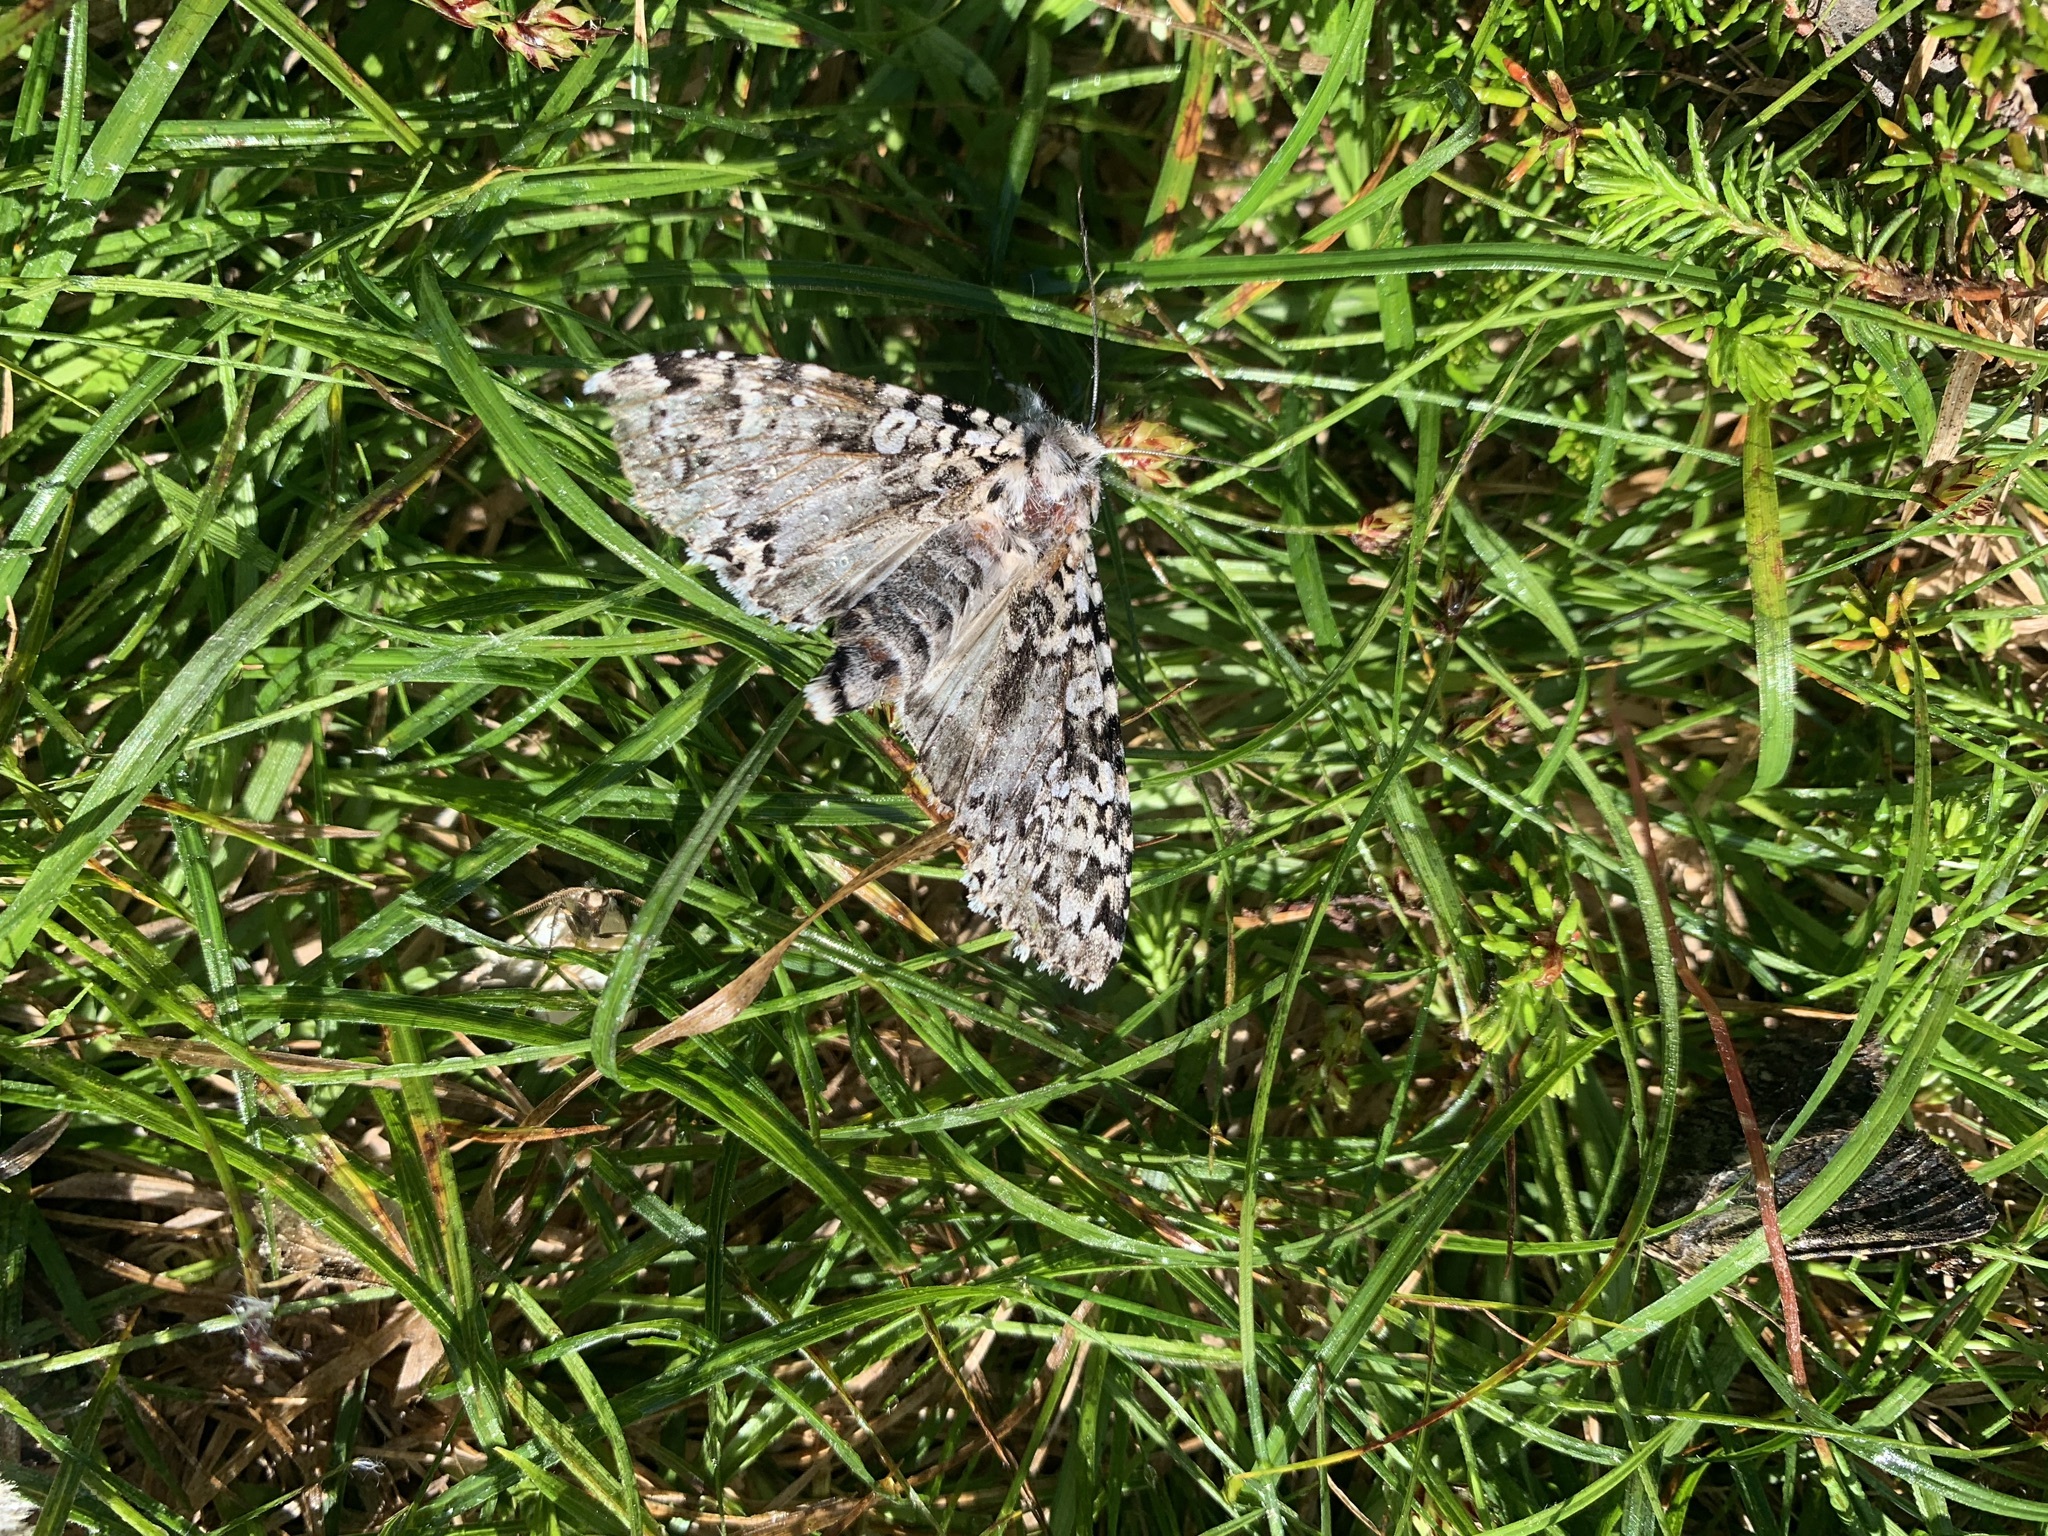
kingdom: Animalia
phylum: Arthropoda
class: Insecta
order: Lepidoptera
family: Noctuidae
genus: Polia
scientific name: Polia goliath
